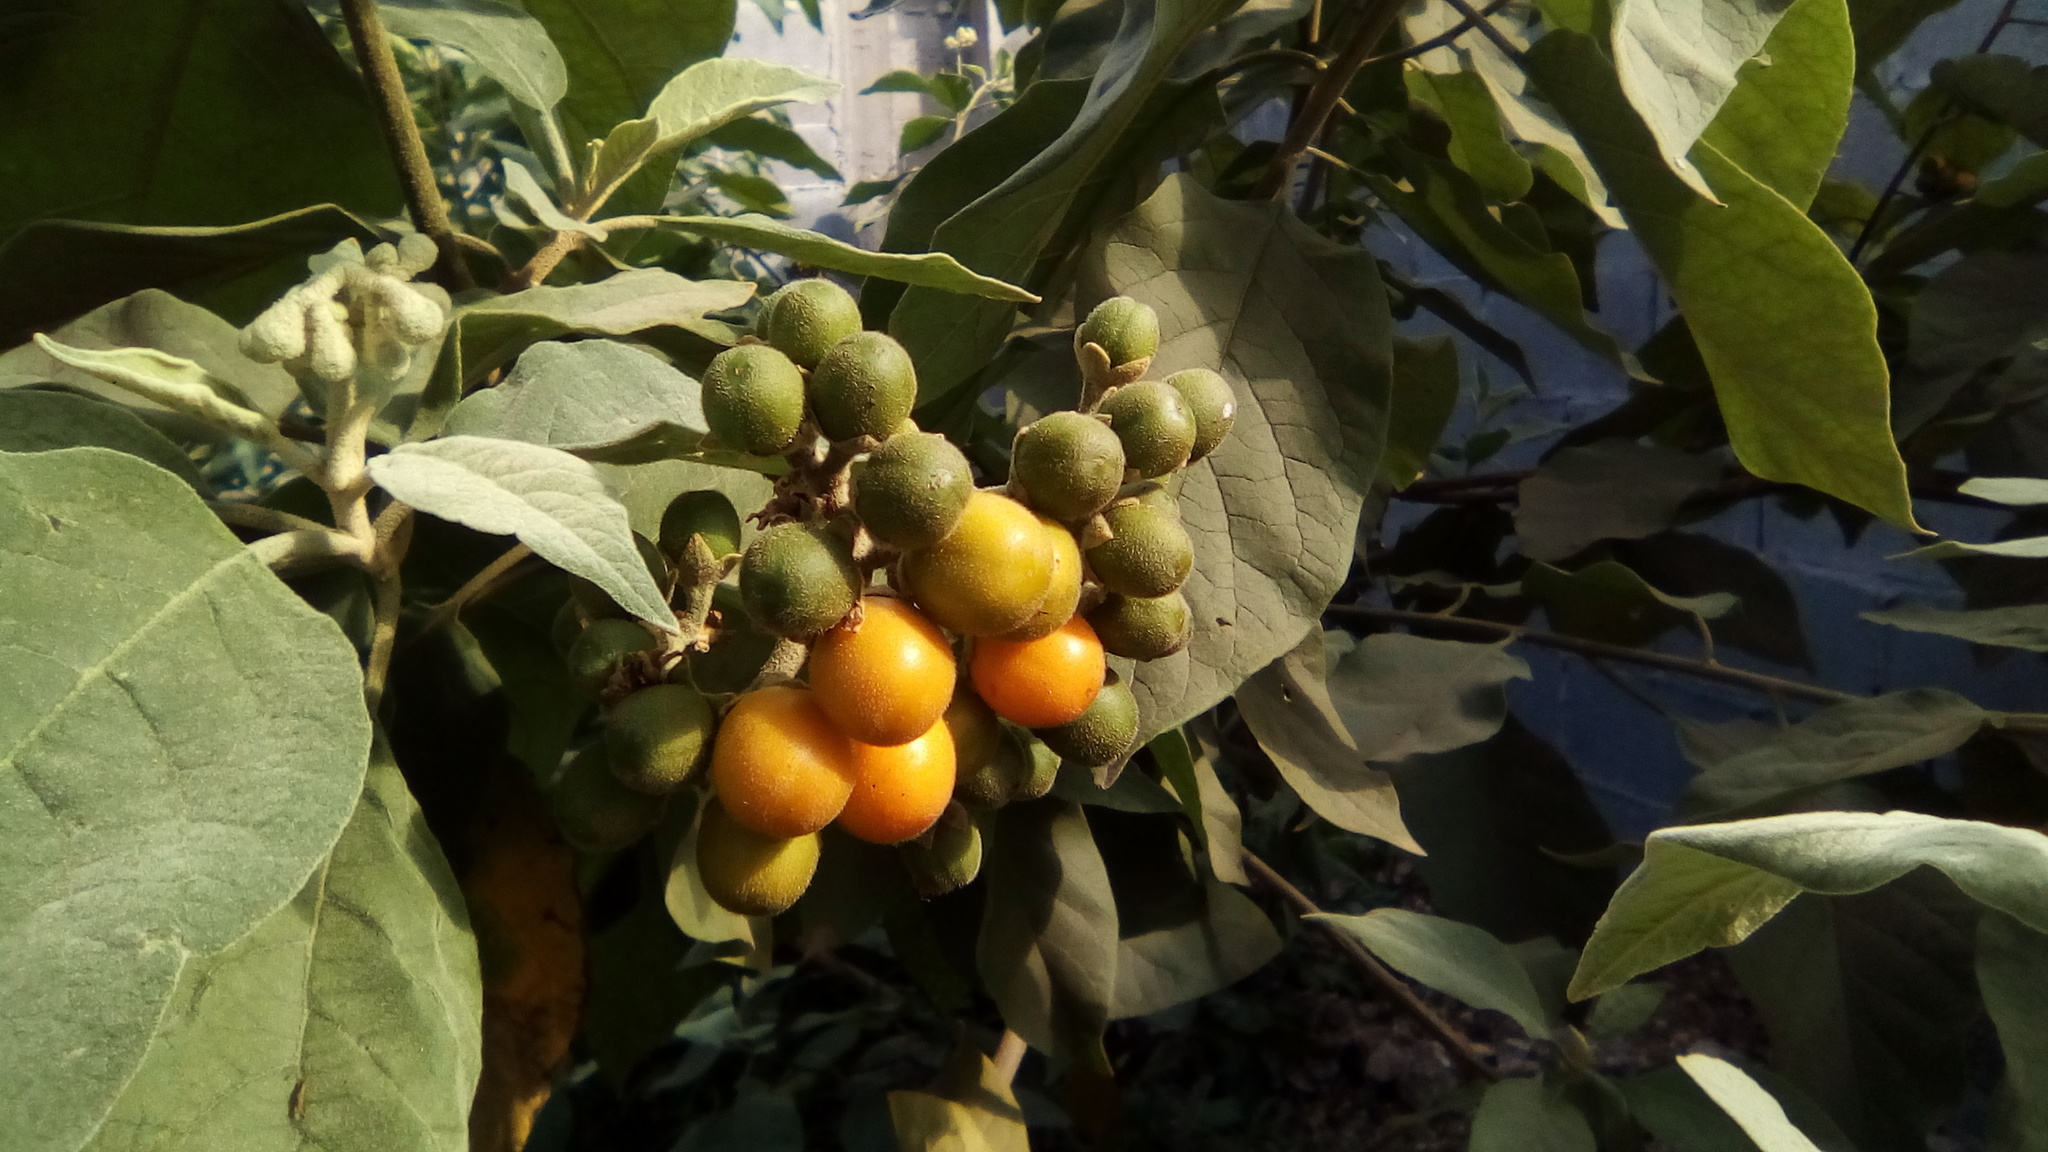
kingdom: Plantae
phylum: Tracheophyta
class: Magnoliopsida
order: Solanales
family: Solanaceae
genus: Solanum
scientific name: Solanum erianthum
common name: Tobacco-tree
